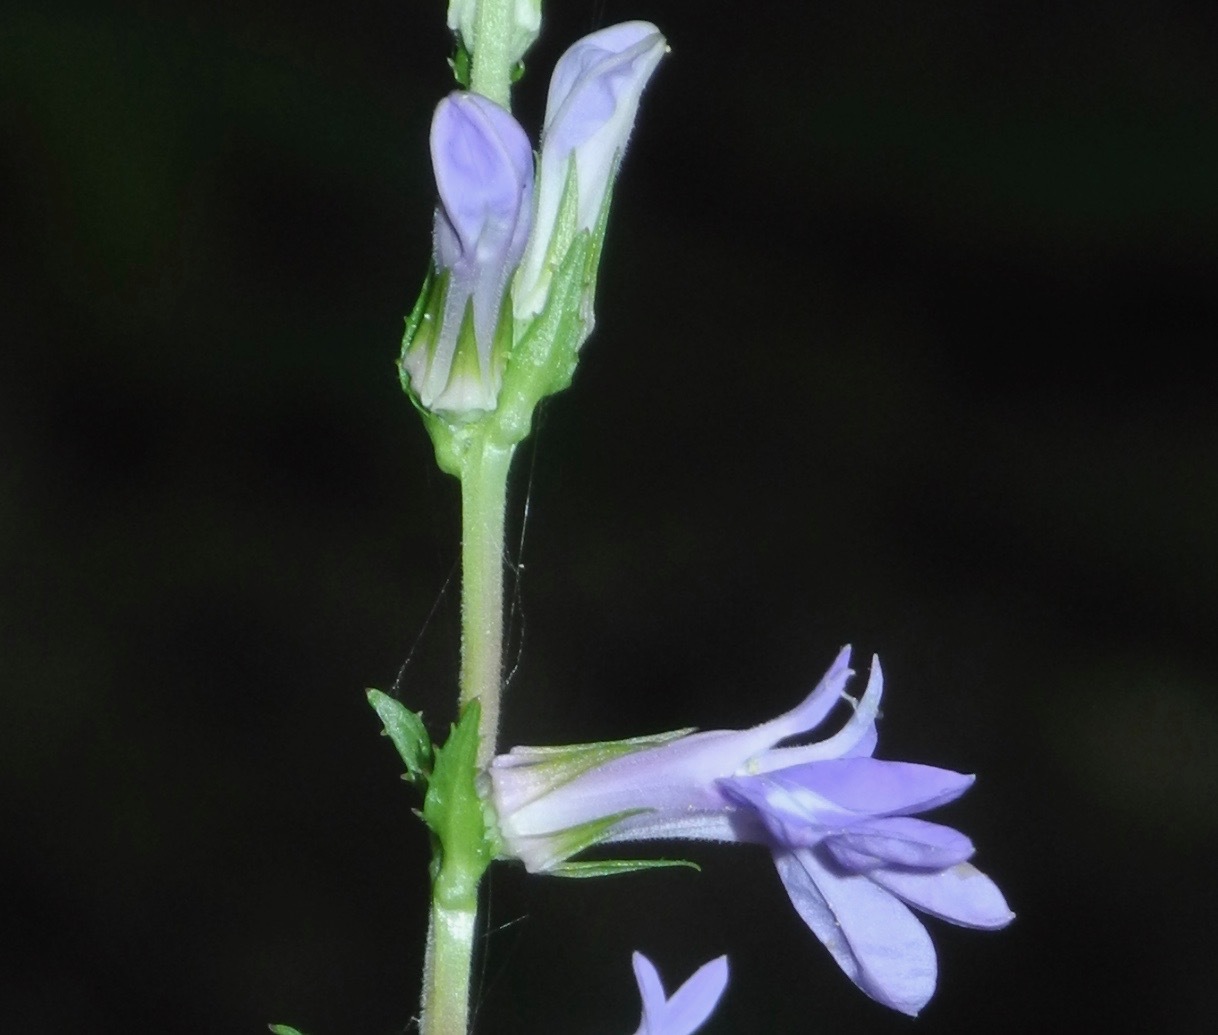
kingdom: Plantae
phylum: Tracheophyta
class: Magnoliopsida
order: Asterales
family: Campanulaceae
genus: Lobelia
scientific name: Lobelia amoena
